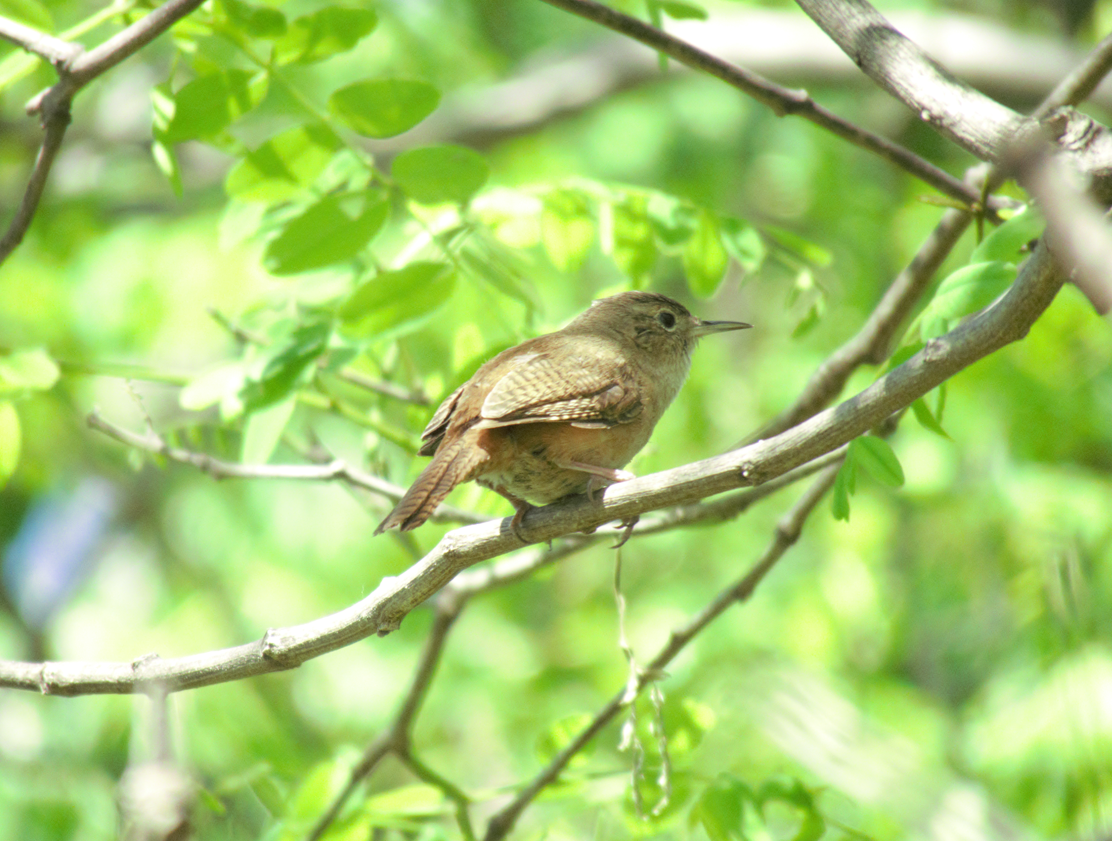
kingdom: Animalia
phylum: Chordata
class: Aves
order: Passeriformes
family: Troglodytidae
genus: Troglodytes
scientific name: Troglodytes aedon
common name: House wren
